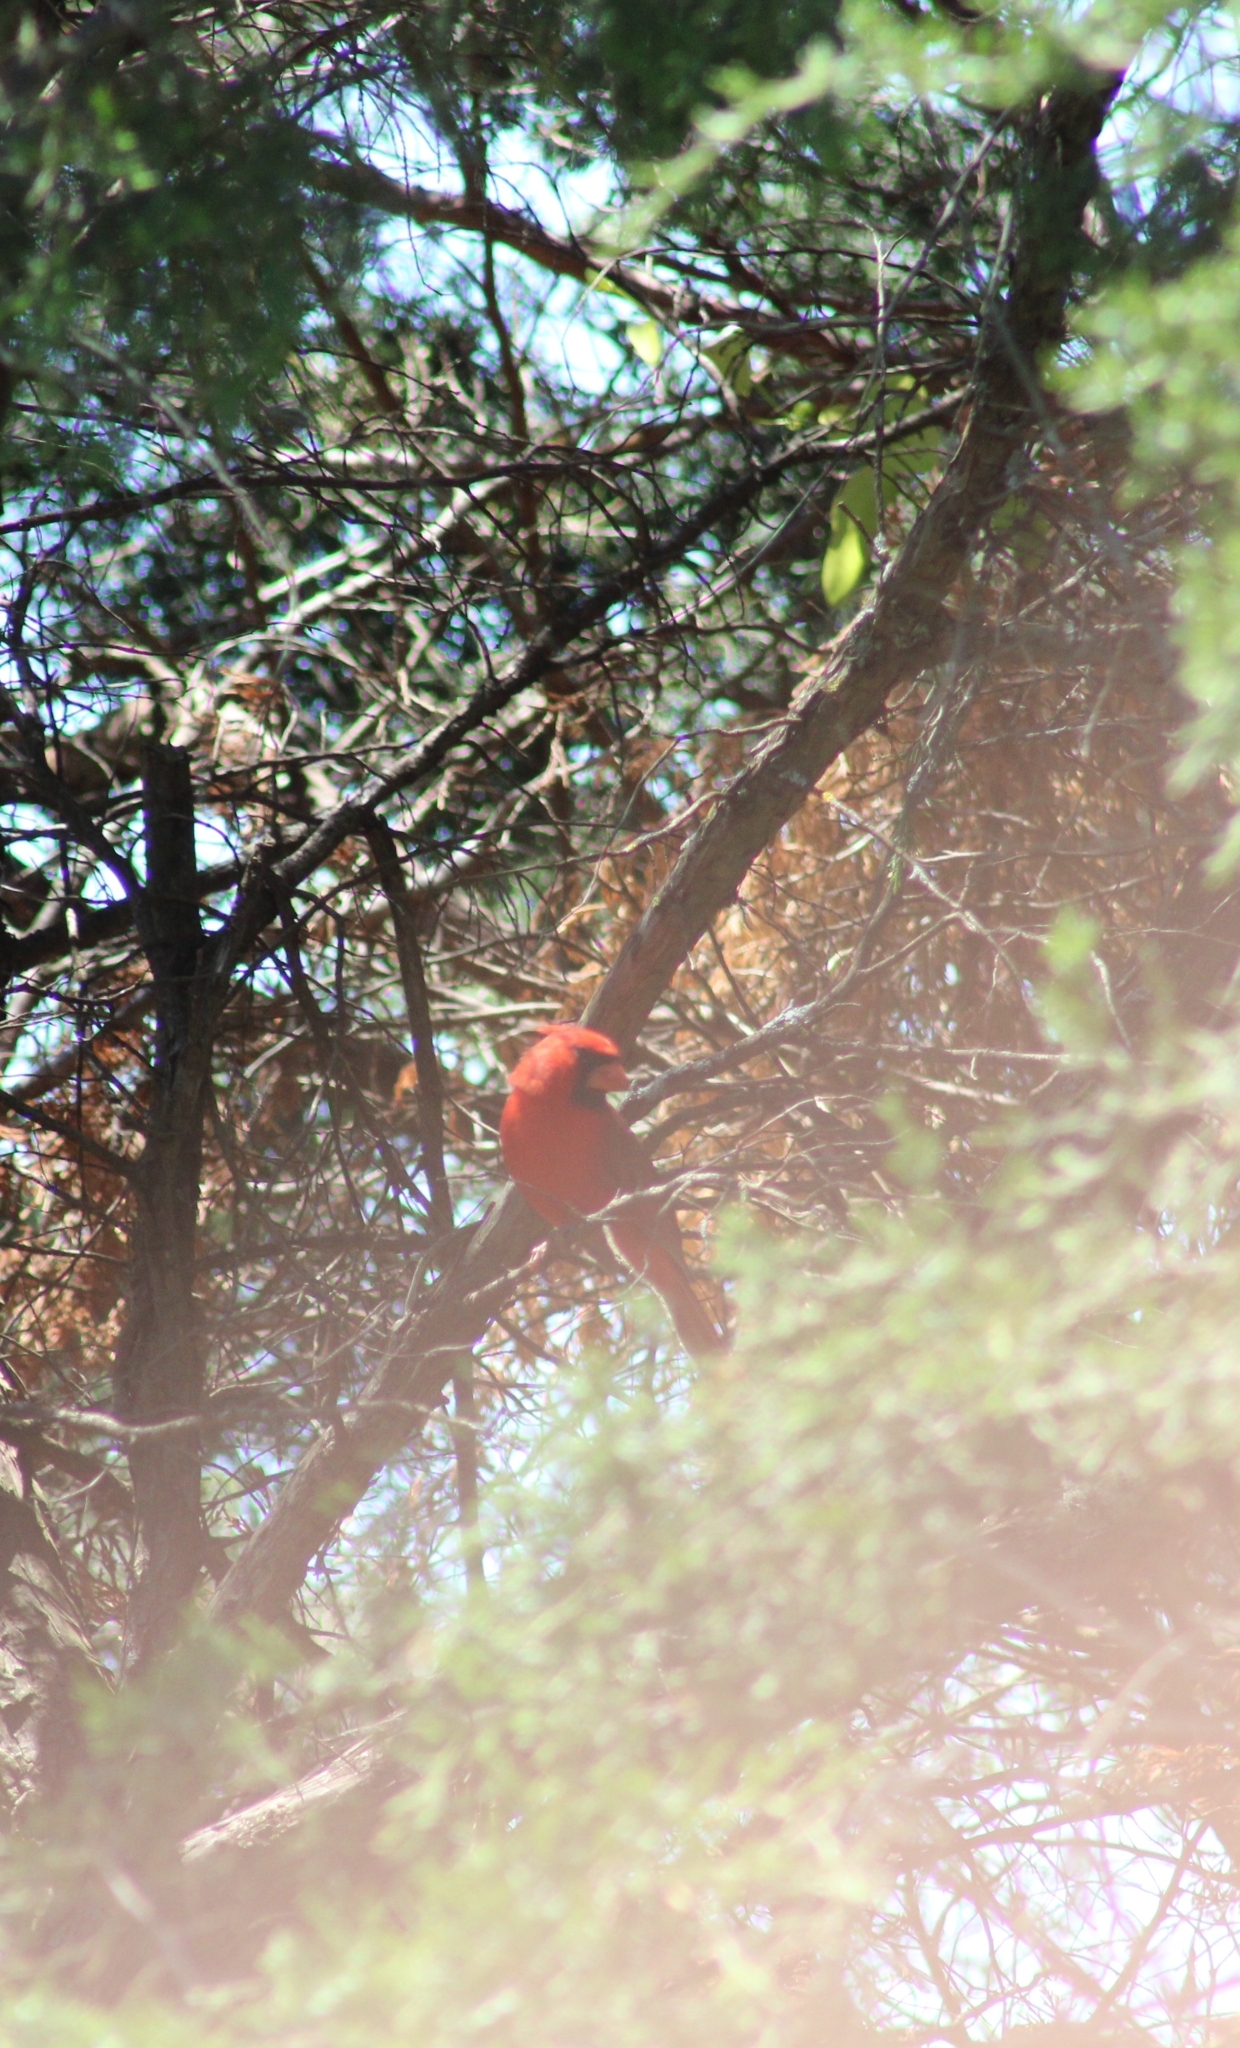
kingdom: Animalia
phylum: Chordata
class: Aves
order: Passeriformes
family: Cardinalidae
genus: Cardinalis
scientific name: Cardinalis cardinalis
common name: Northern cardinal
